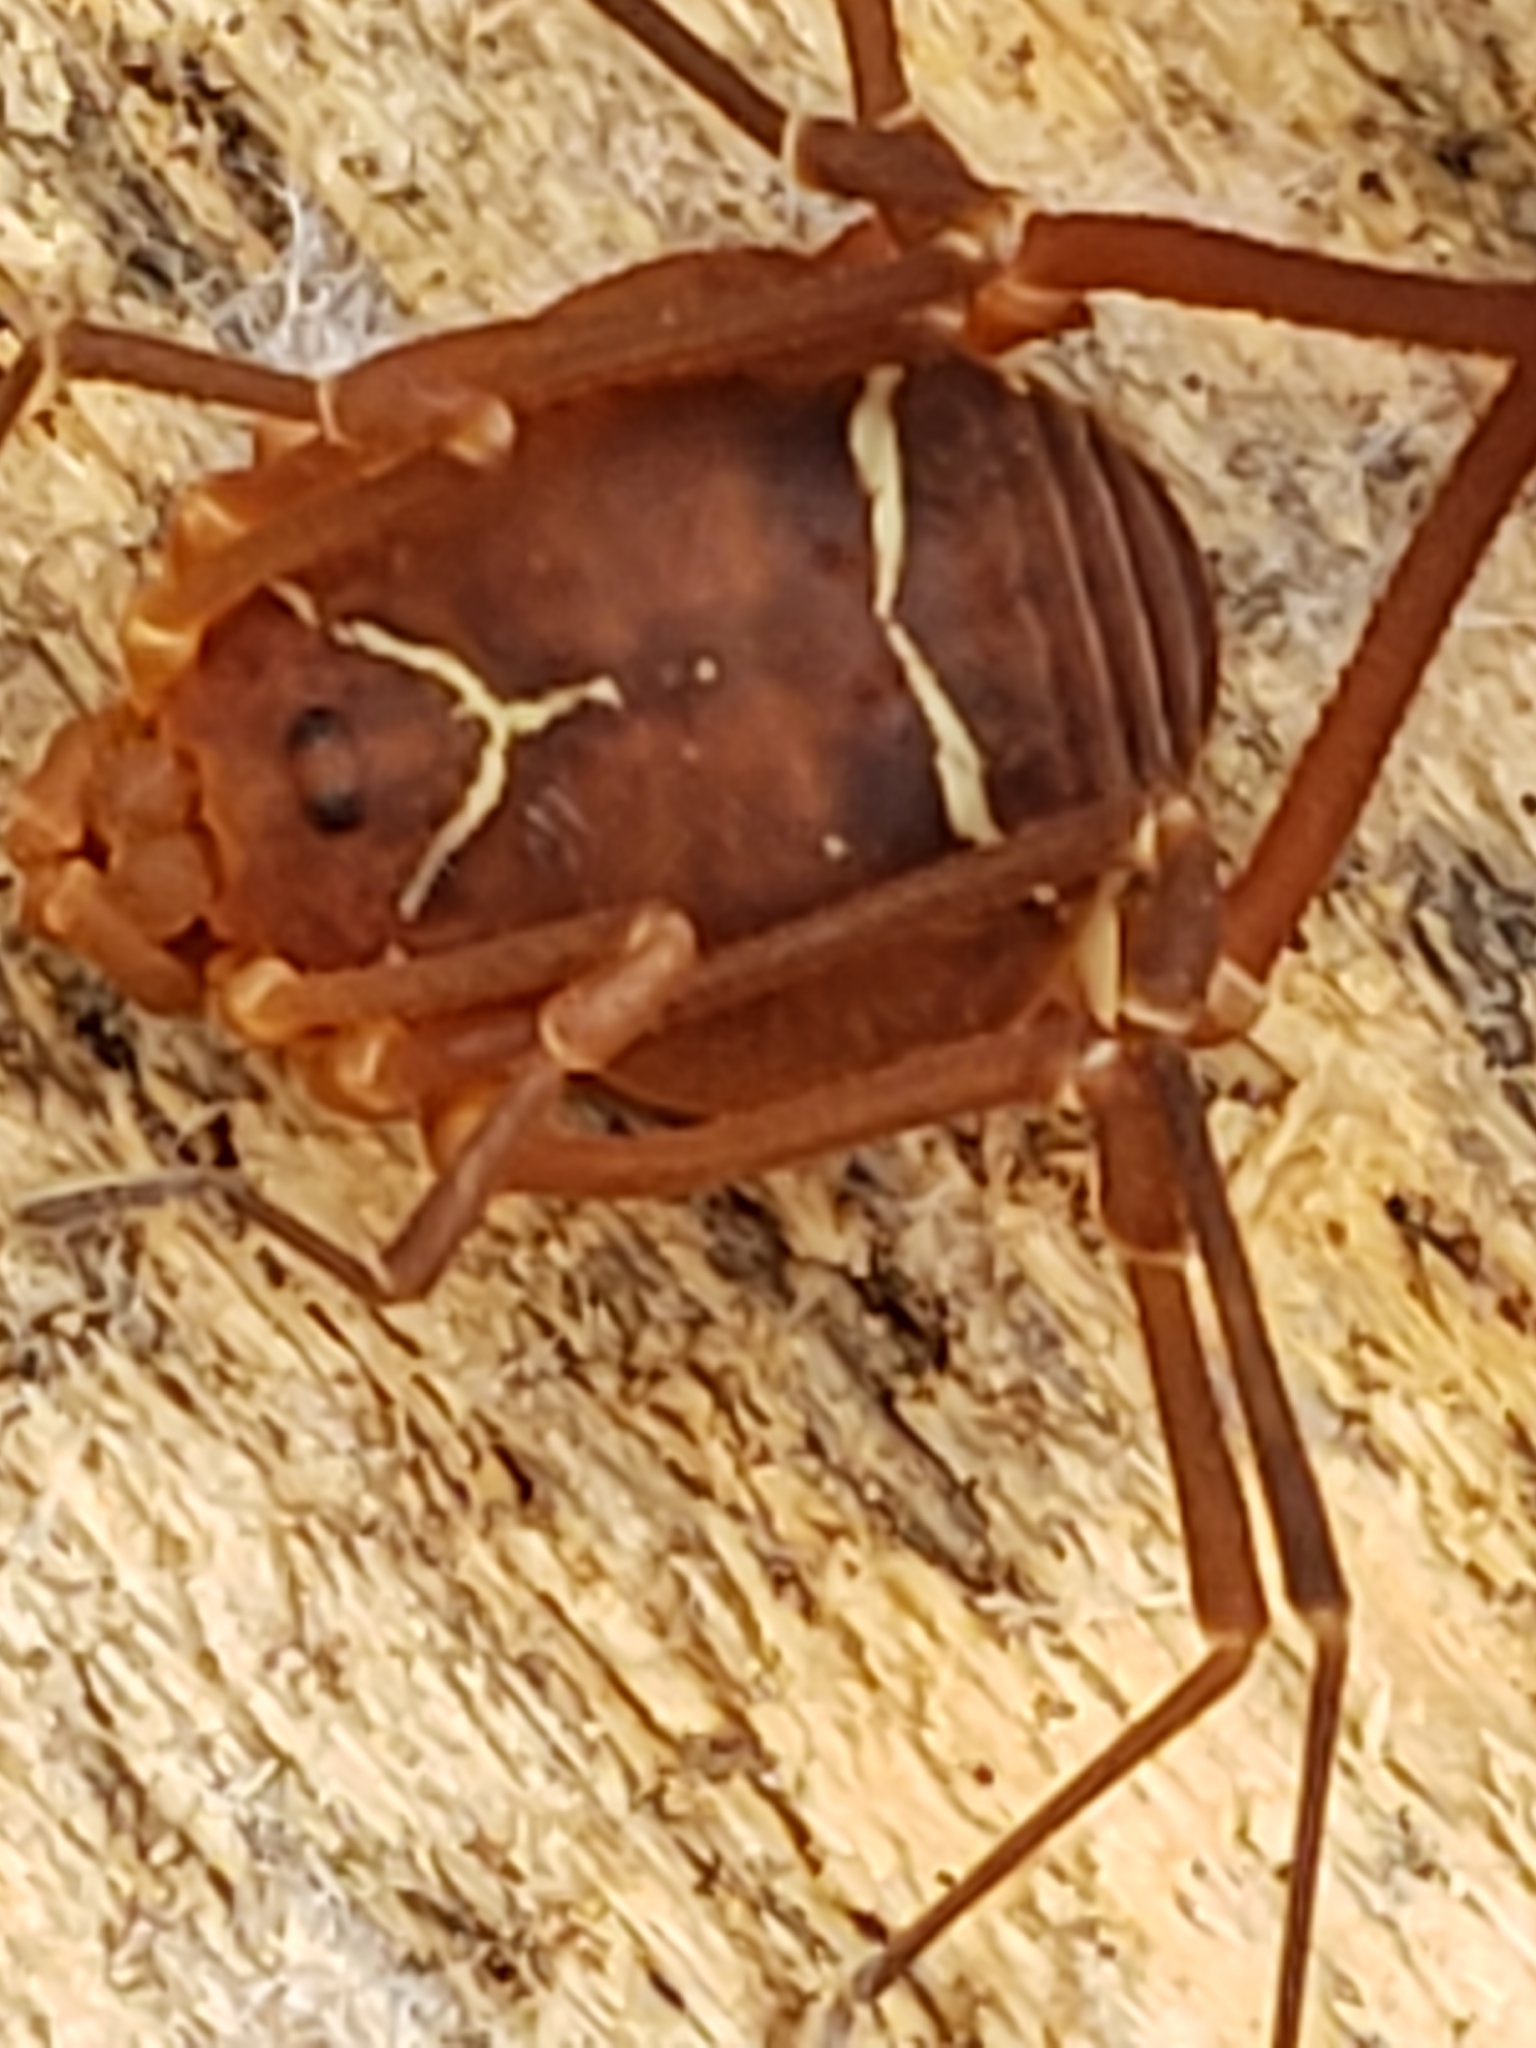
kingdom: Animalia
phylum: Arthropoda
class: Arachnida
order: Opiliones
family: Cosmetidae
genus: Libitioides
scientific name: Libitioides sayi
